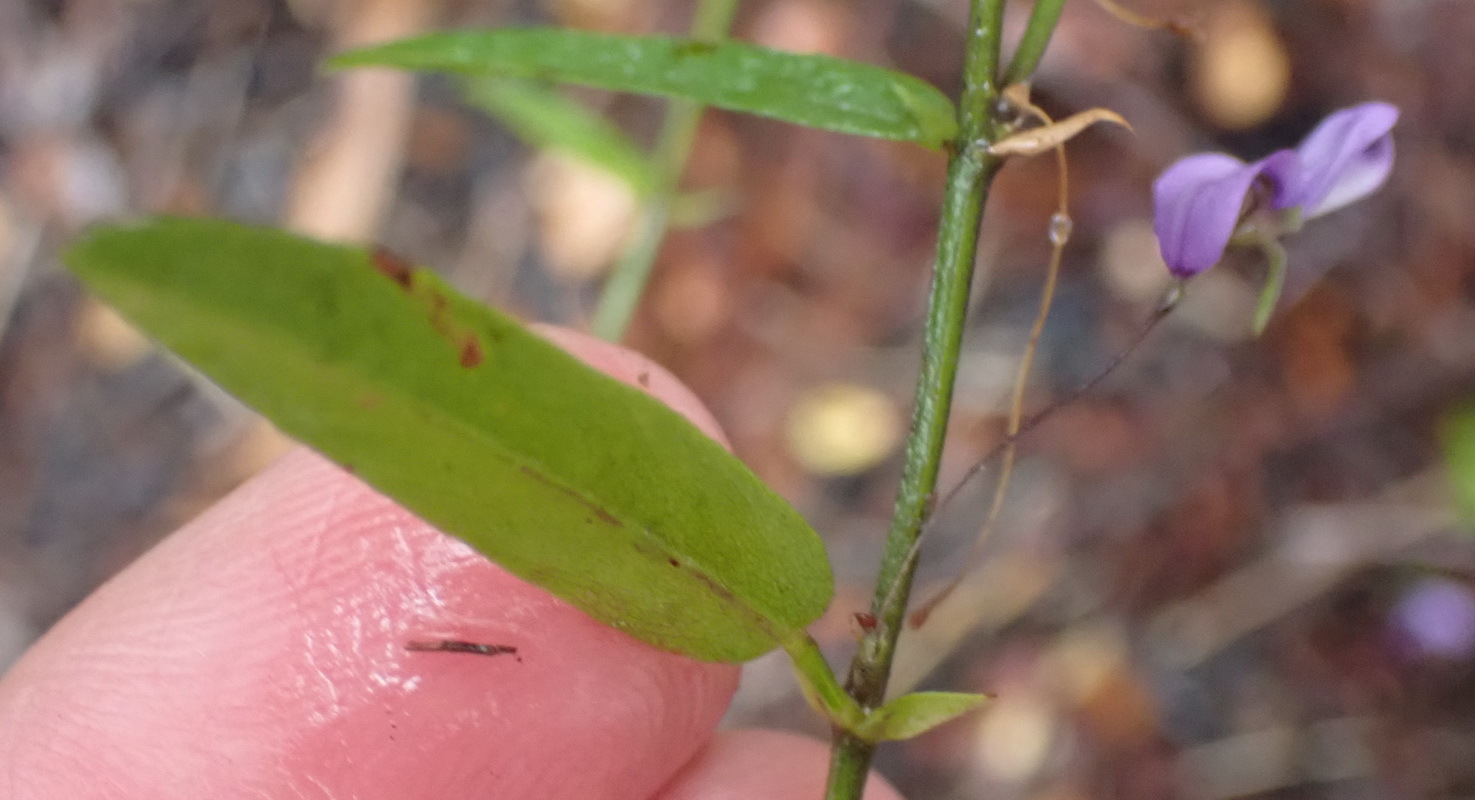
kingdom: Plantae
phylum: Tracheophyta
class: Magnoliopsida
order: Fabales
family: Fabaceae
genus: Psoralea
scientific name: Psoralea plauta
